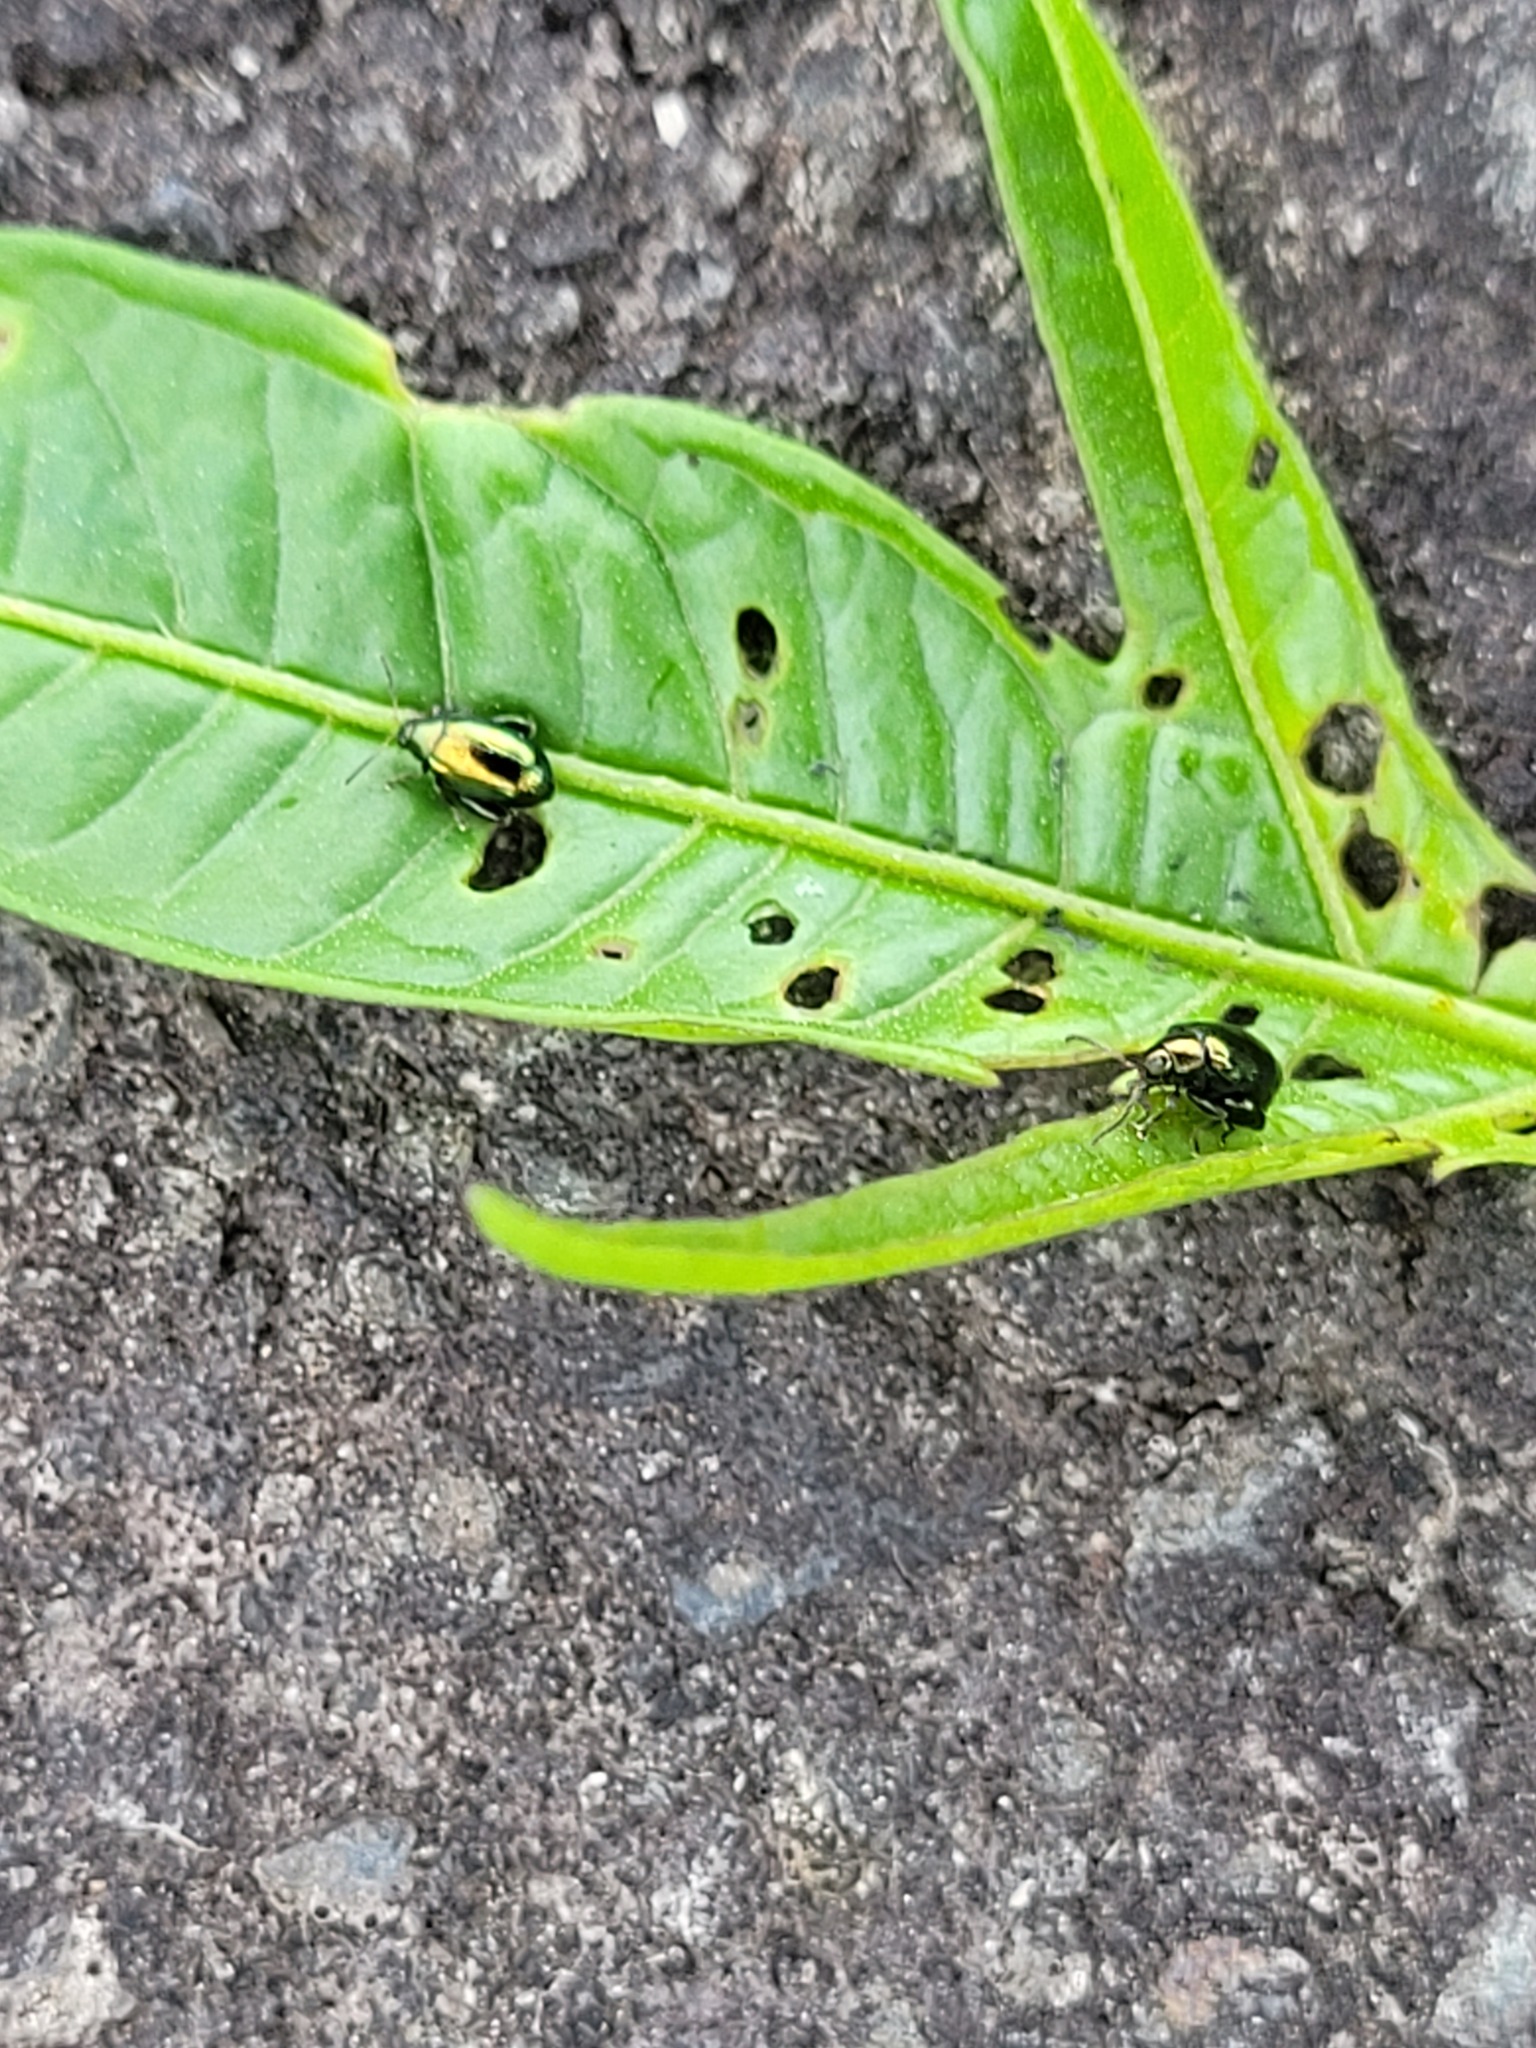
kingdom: Animalia
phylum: Arthropoda
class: Insecta
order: Coleoptera
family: Chrysomelidae
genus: Psylliodes
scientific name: Psylliodes brettinghami
